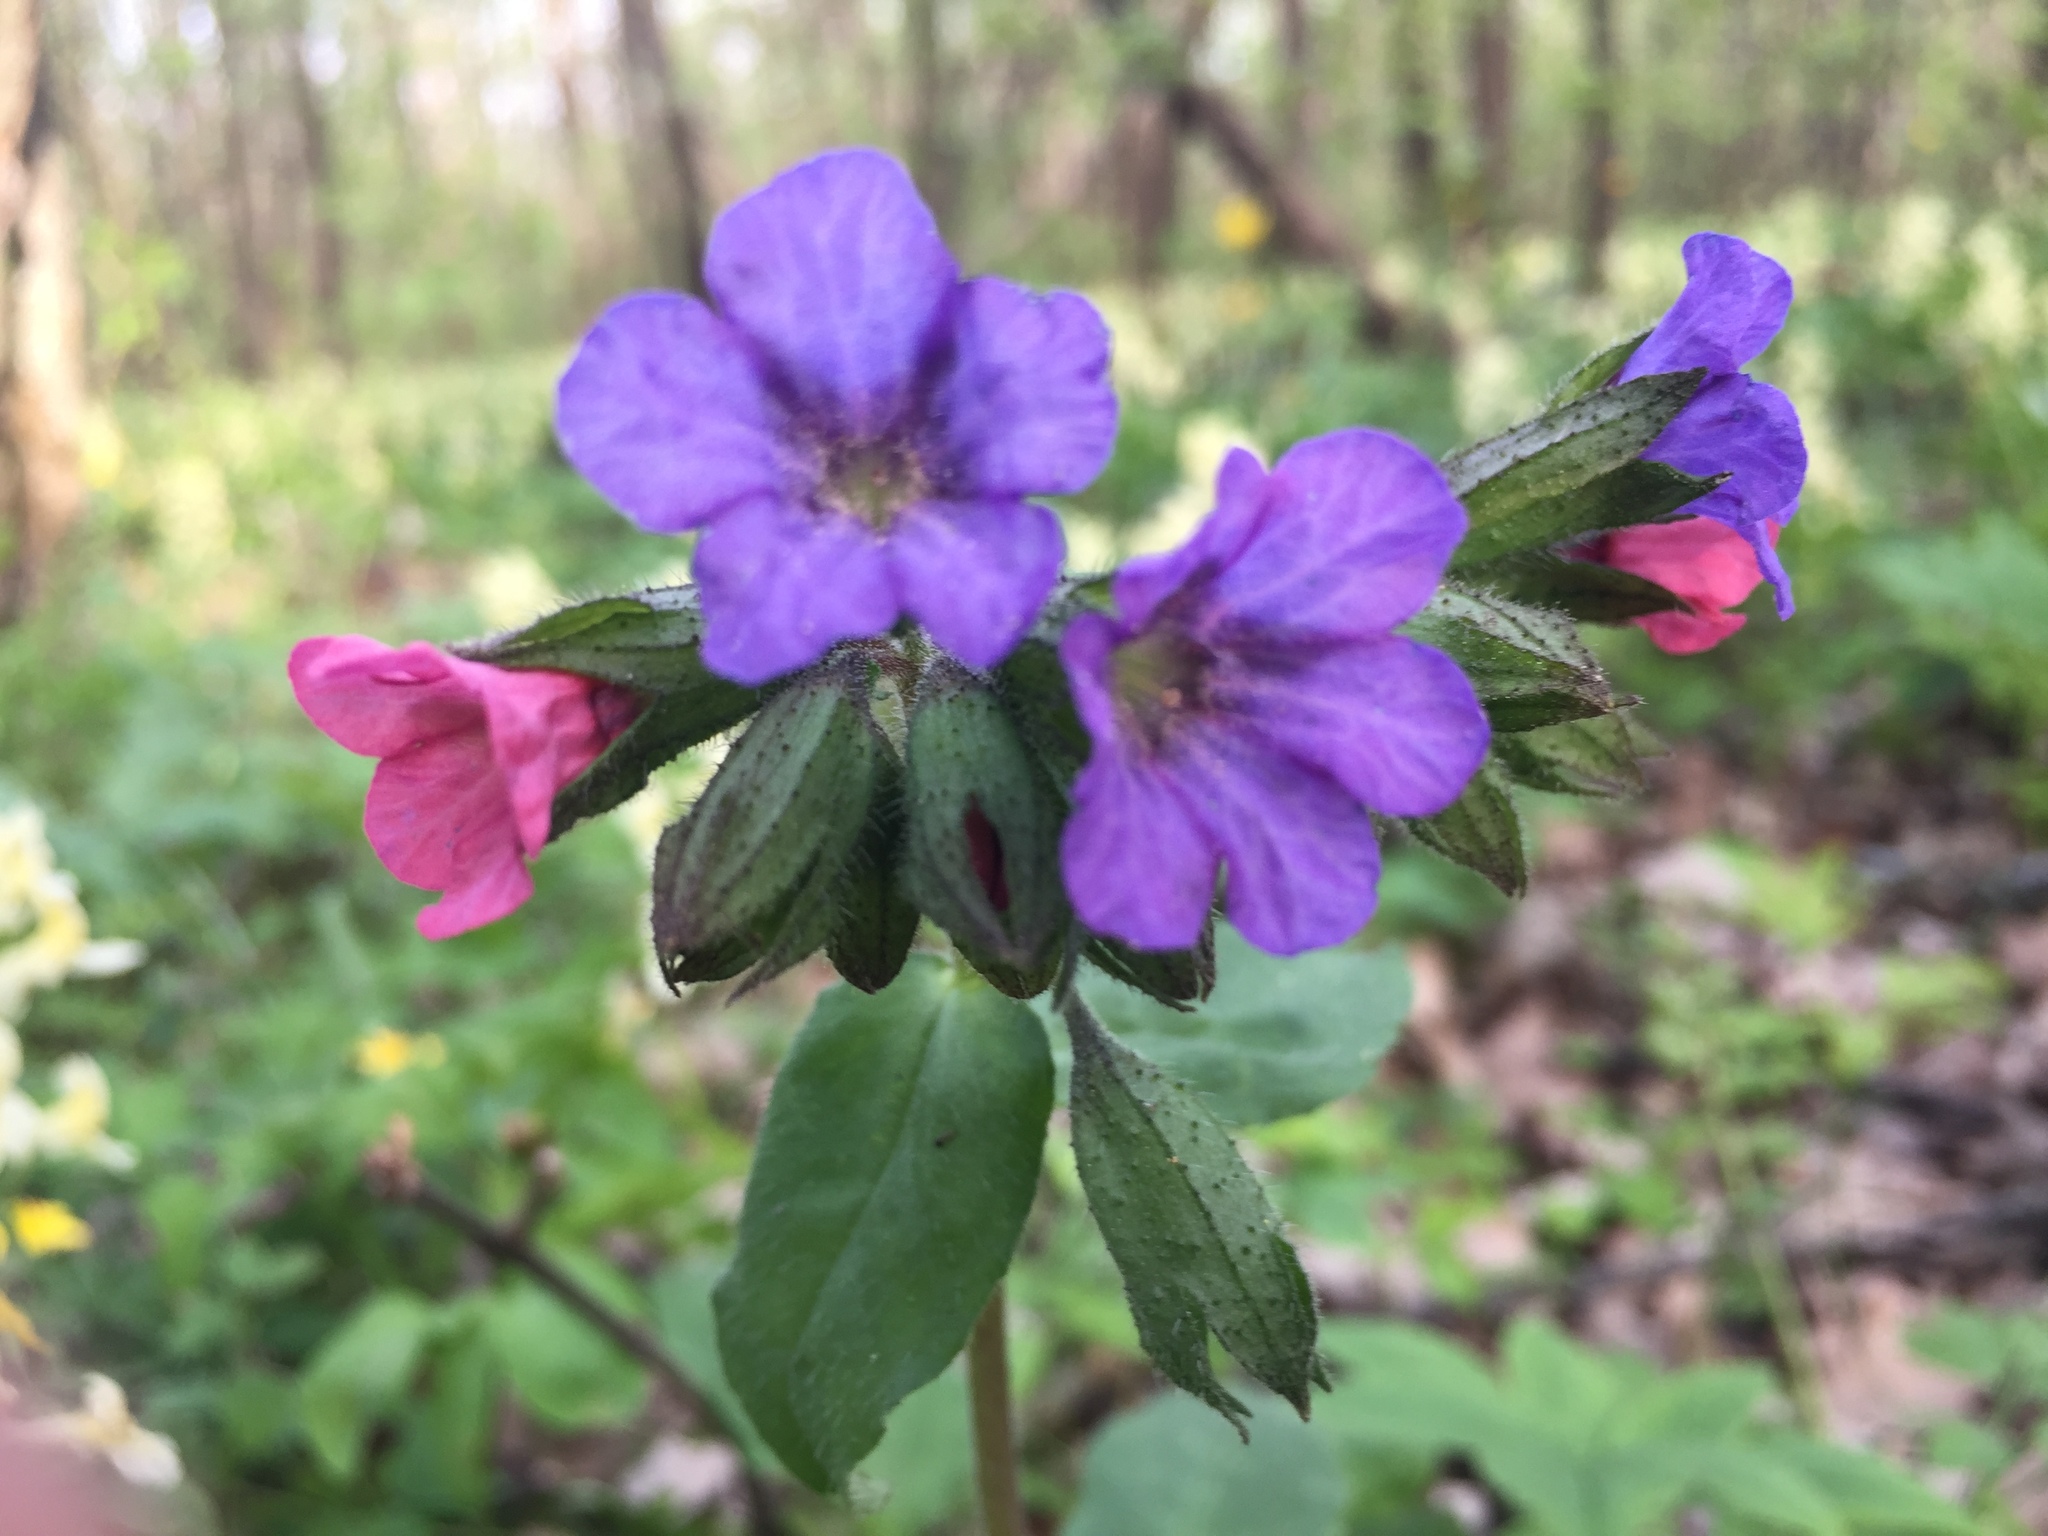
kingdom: Plantae
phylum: Tracheophyta
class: Magnoliopsida
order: Boraginales
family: Boraginaceae
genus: Pulmonaria
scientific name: Pulmonaria obscura
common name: Suffolk lungwort
